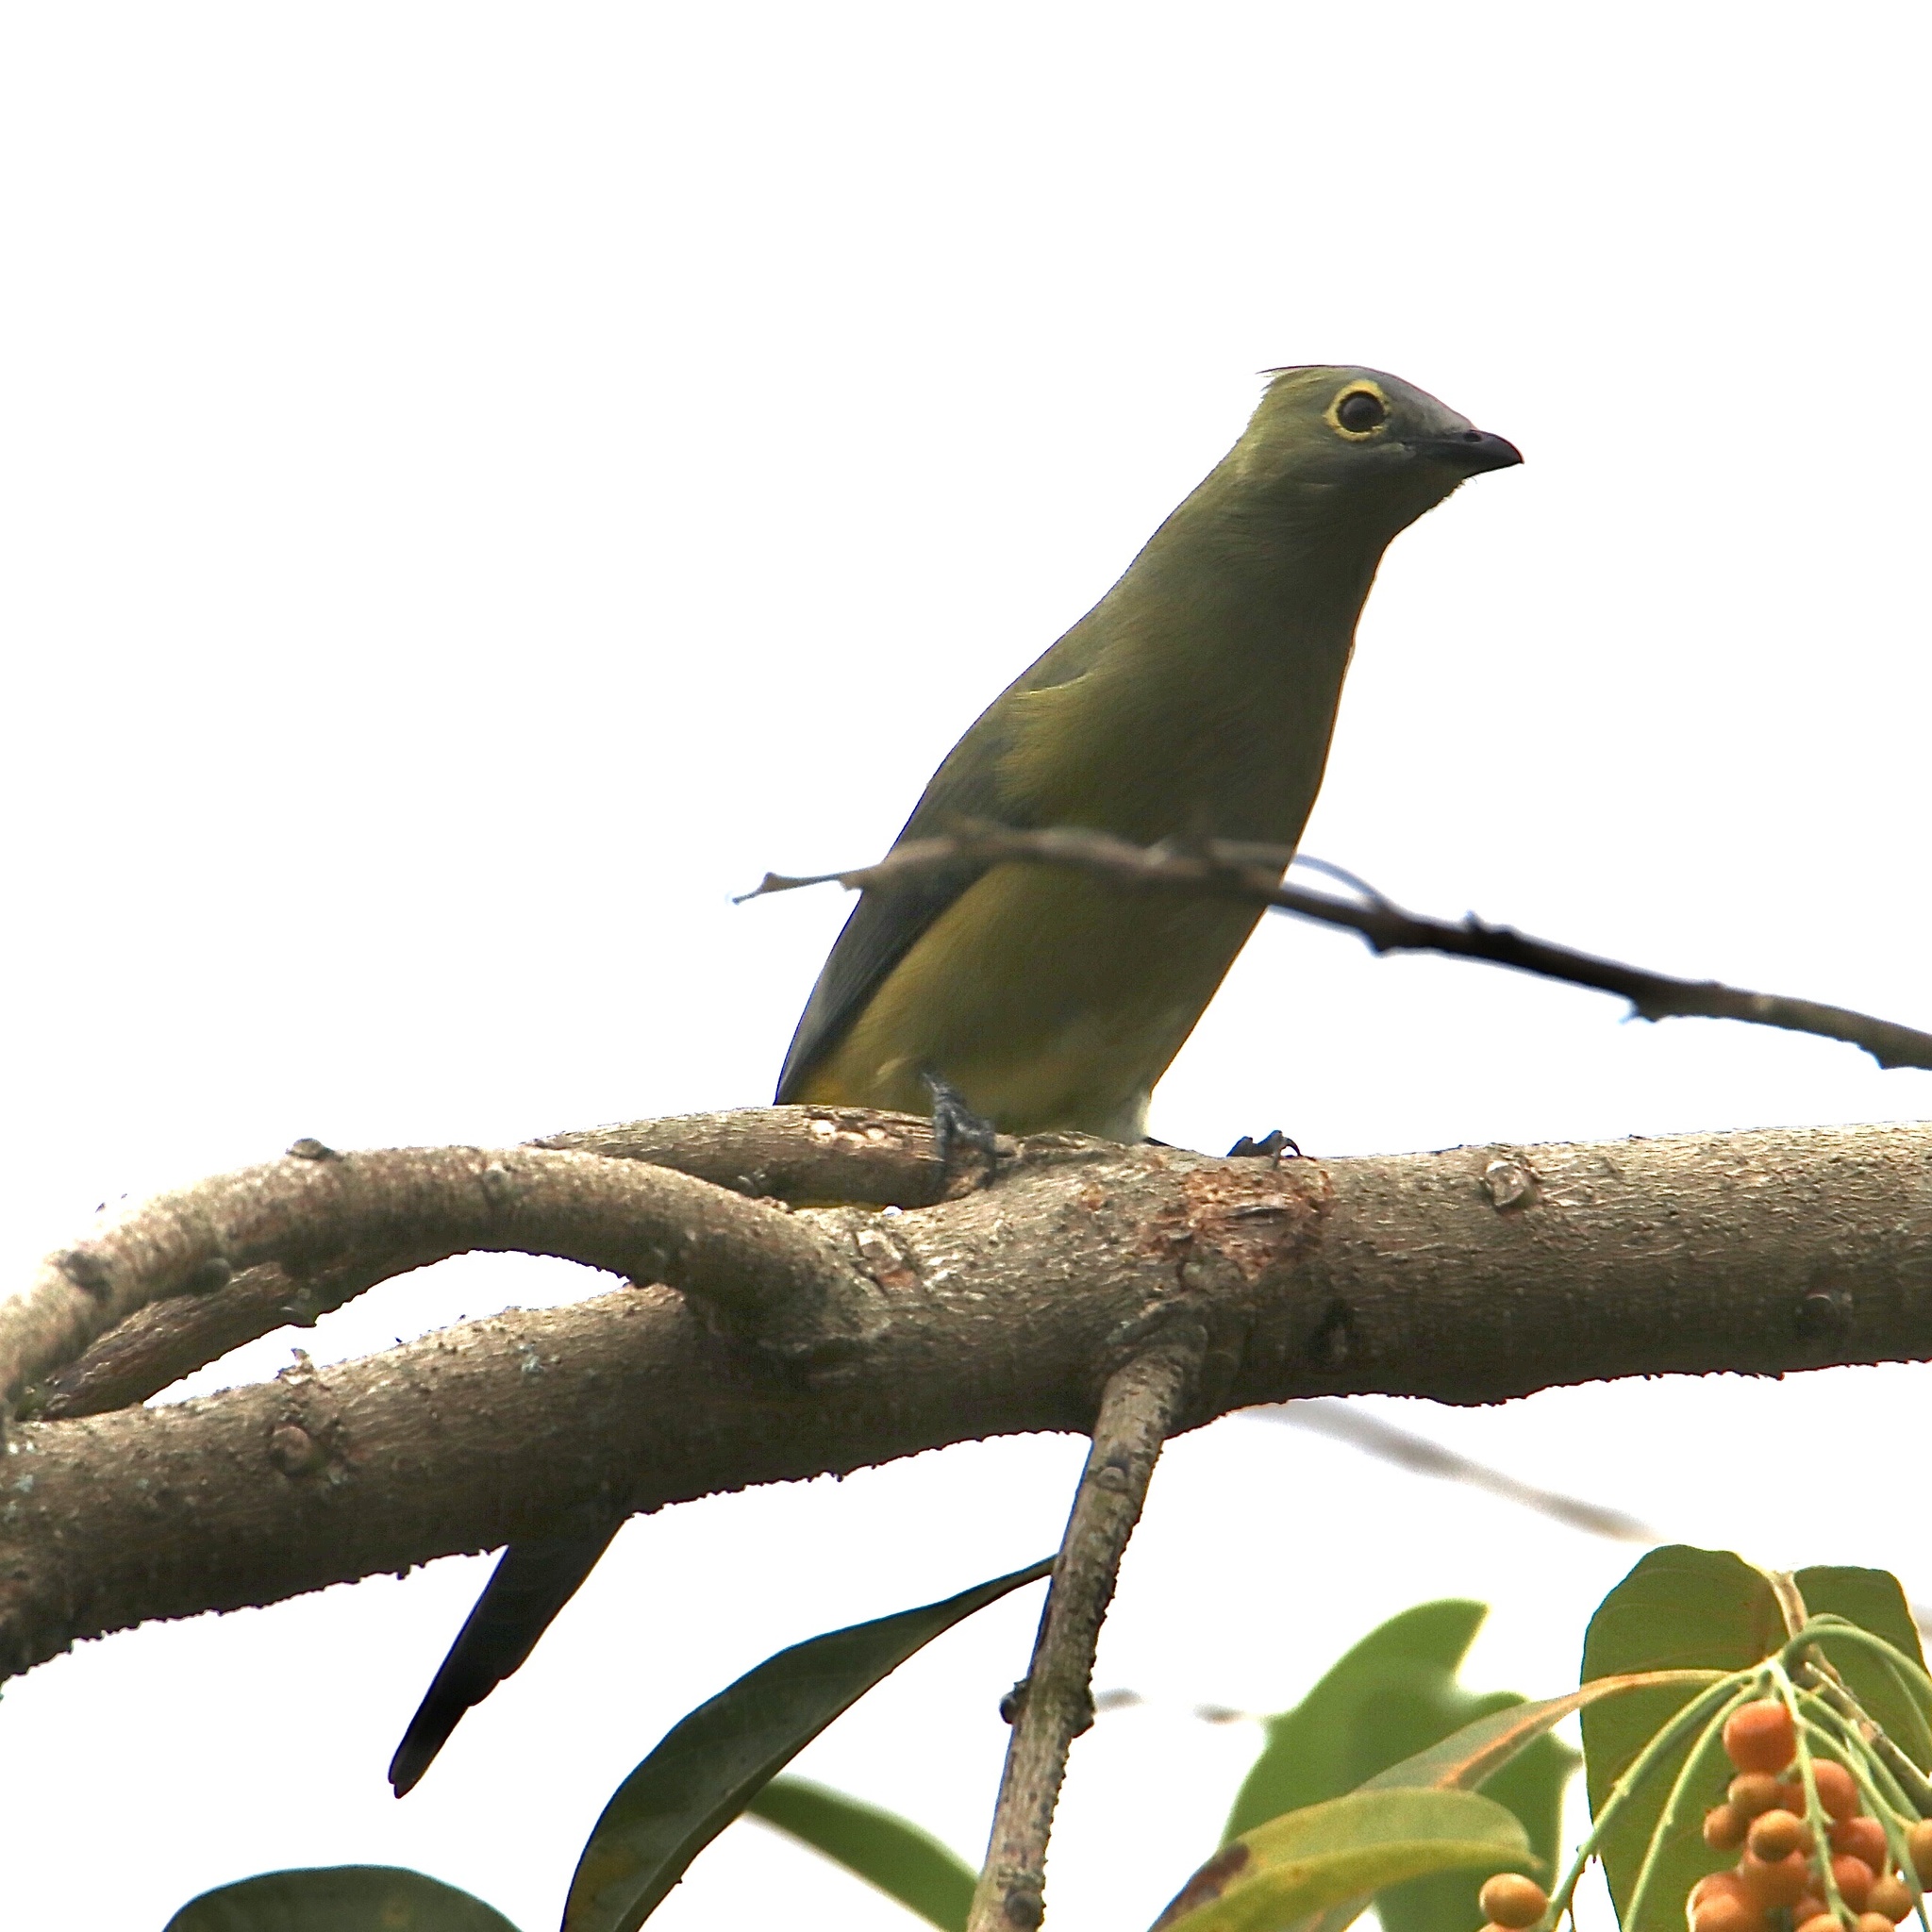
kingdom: Animalia
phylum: Chordata
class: Aves
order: Passeriformes
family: Ptilogonatidae
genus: Ptilogonys
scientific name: Ptilogonys caudatus
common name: Long-tailed silky-flycatcher
